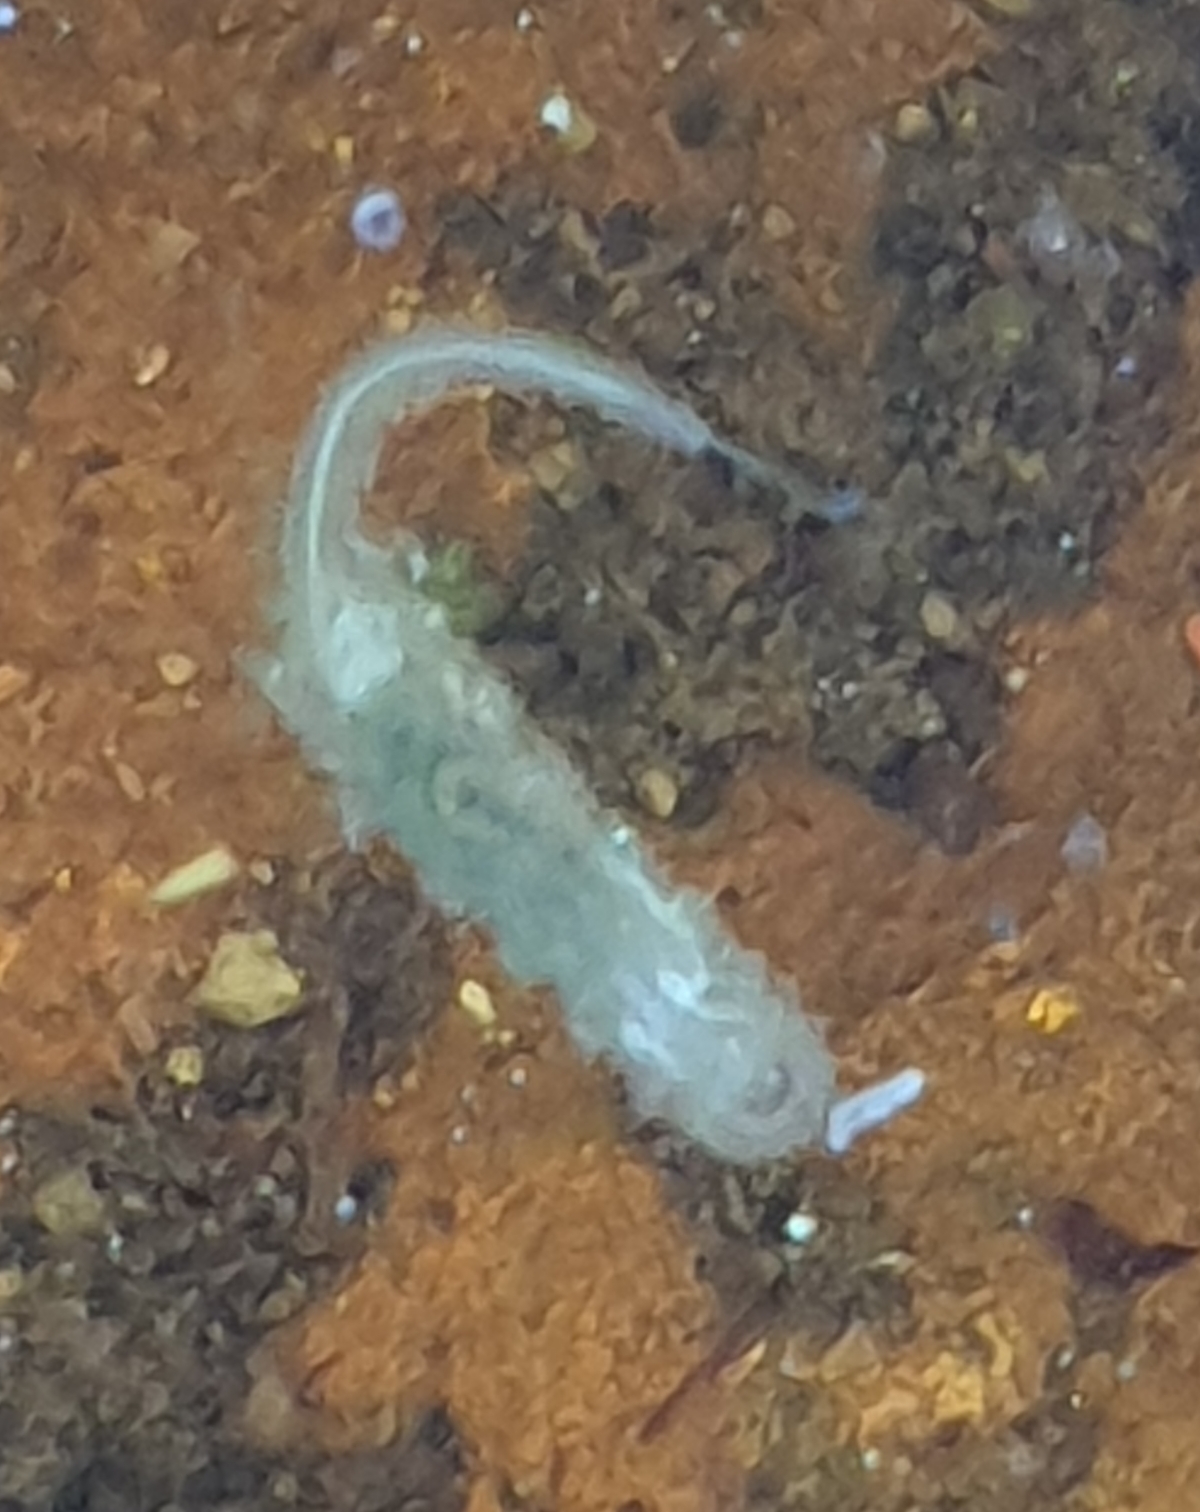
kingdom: Animalia
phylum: Arthropoda
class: Insecta
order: Diptera
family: Syrphidae
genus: Eristalis
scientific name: Eristalis
